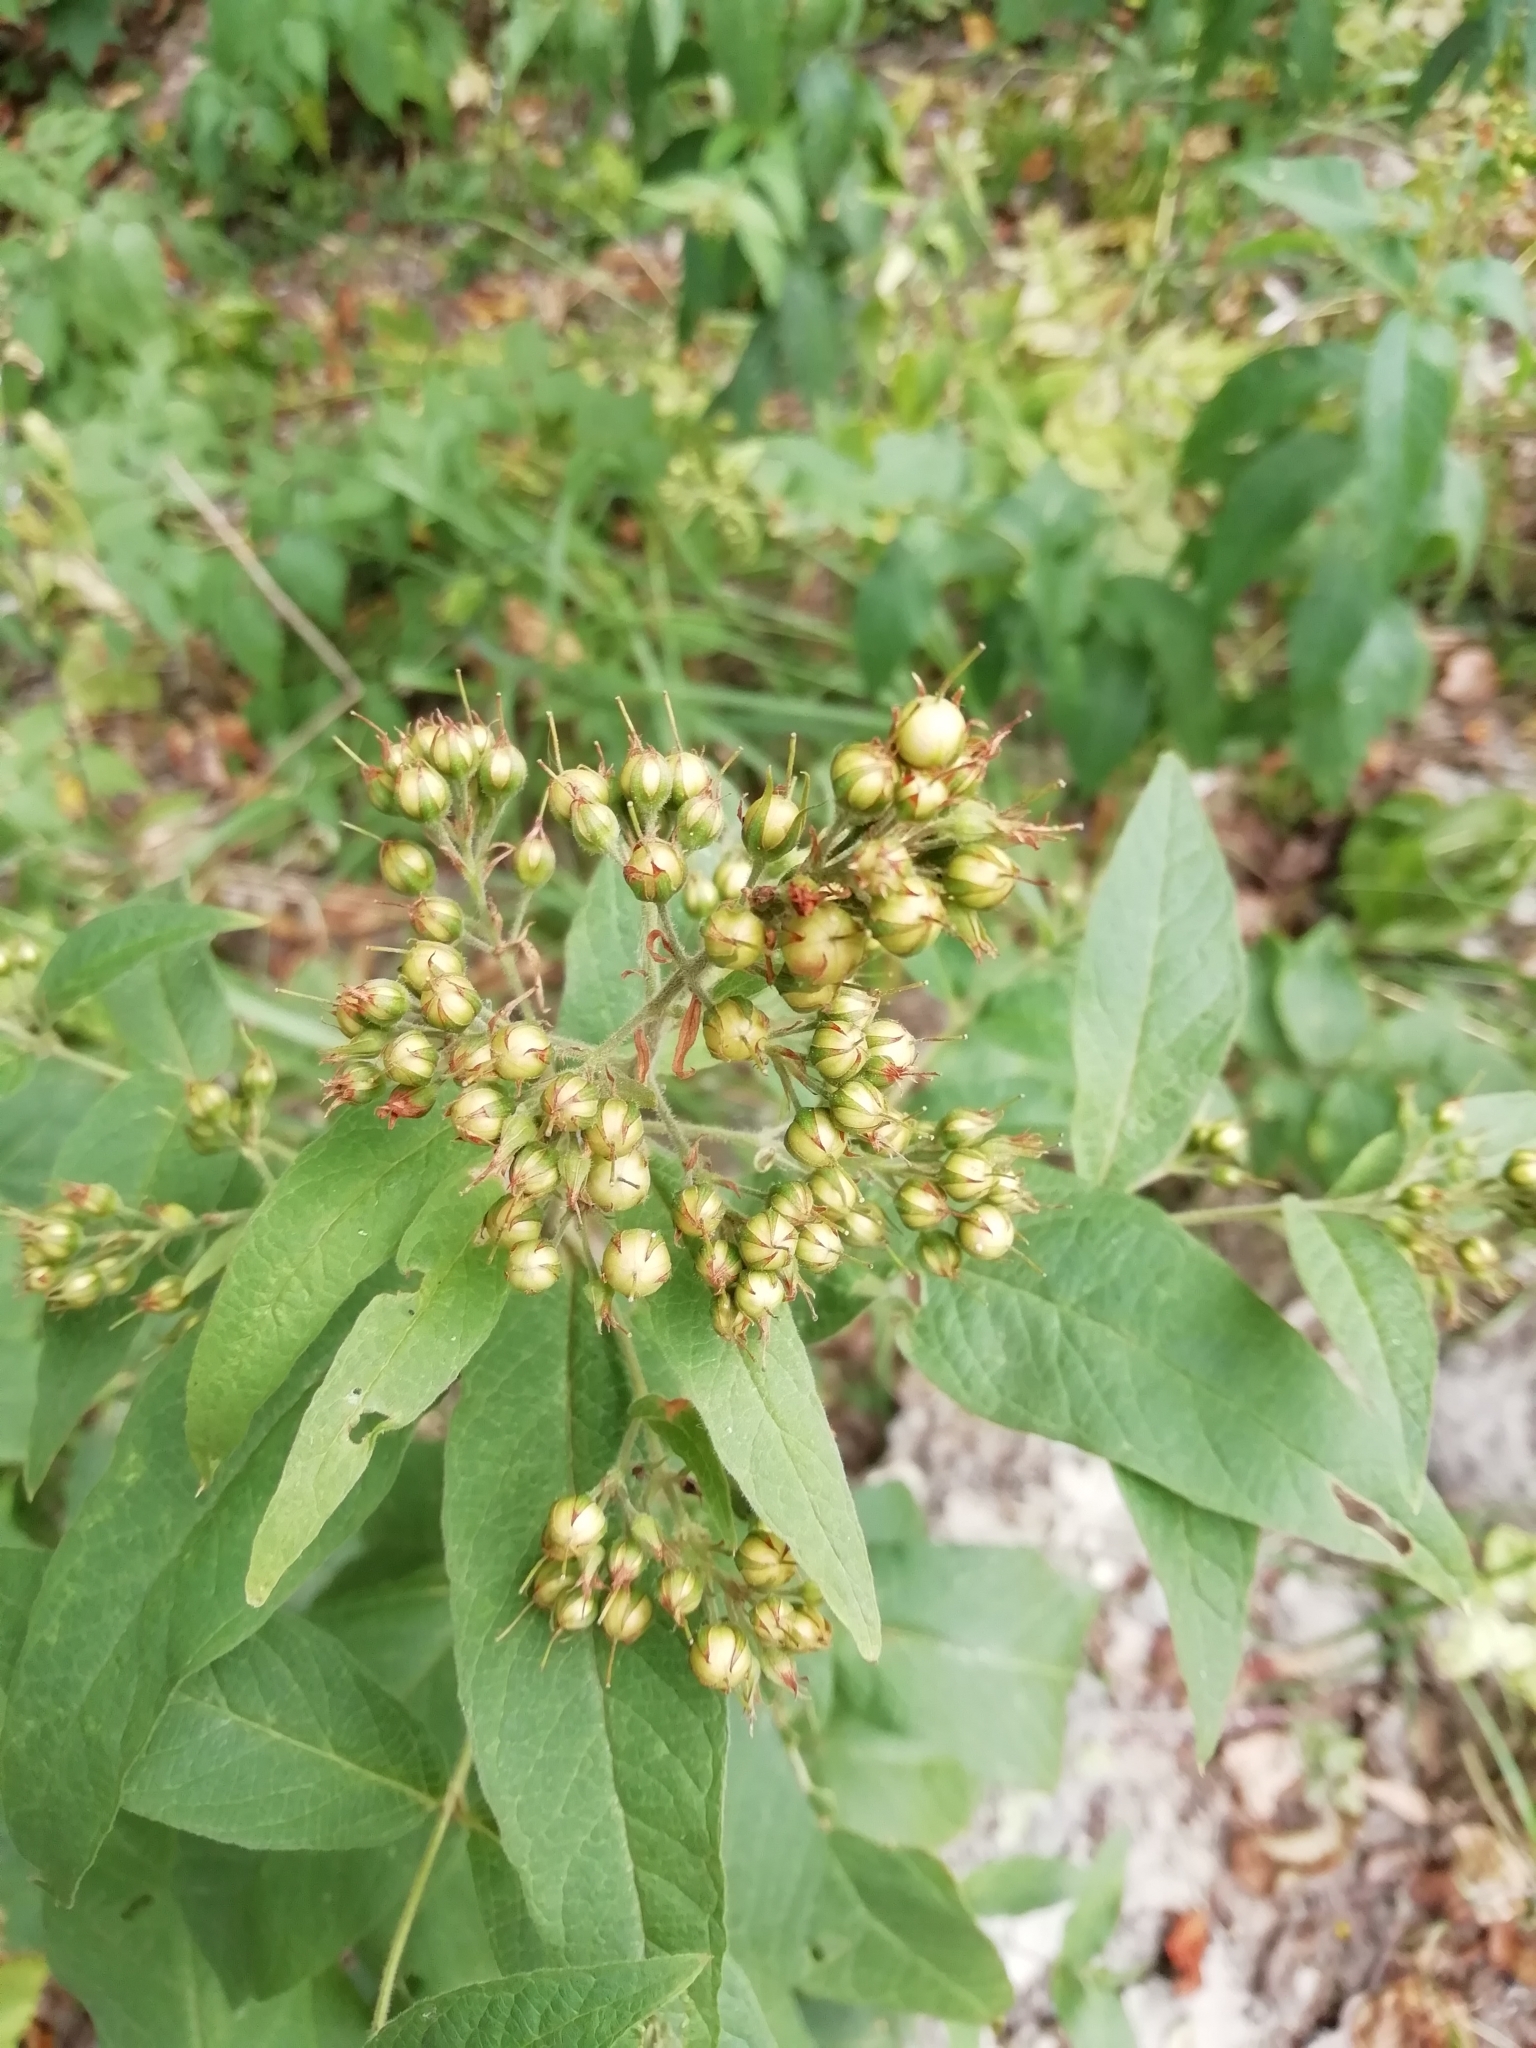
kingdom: Plantae
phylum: Tracheophyta
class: Magnoliopsida
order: Ericales
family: Primulaceae
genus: Lysimachia
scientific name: Lysimachia vulgaris
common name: Yellow loosestrife
